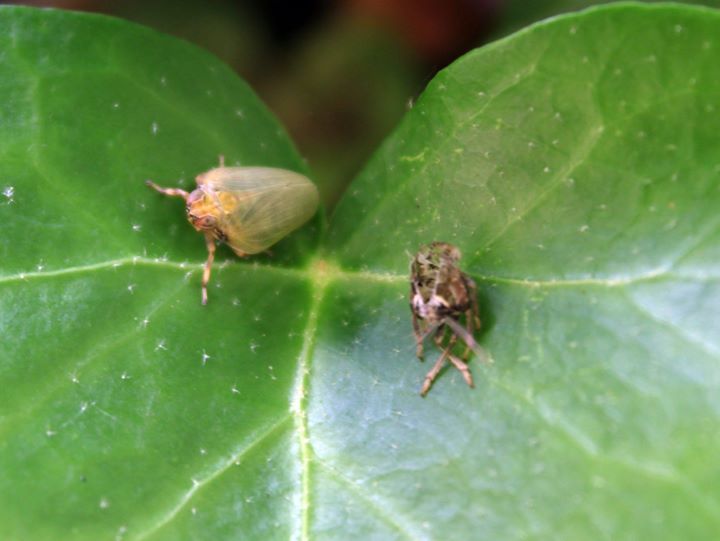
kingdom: Animalia
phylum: Arthropoda
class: Insecta
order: Hemiptera
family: Issidae
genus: Issus
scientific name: Issus lauri
